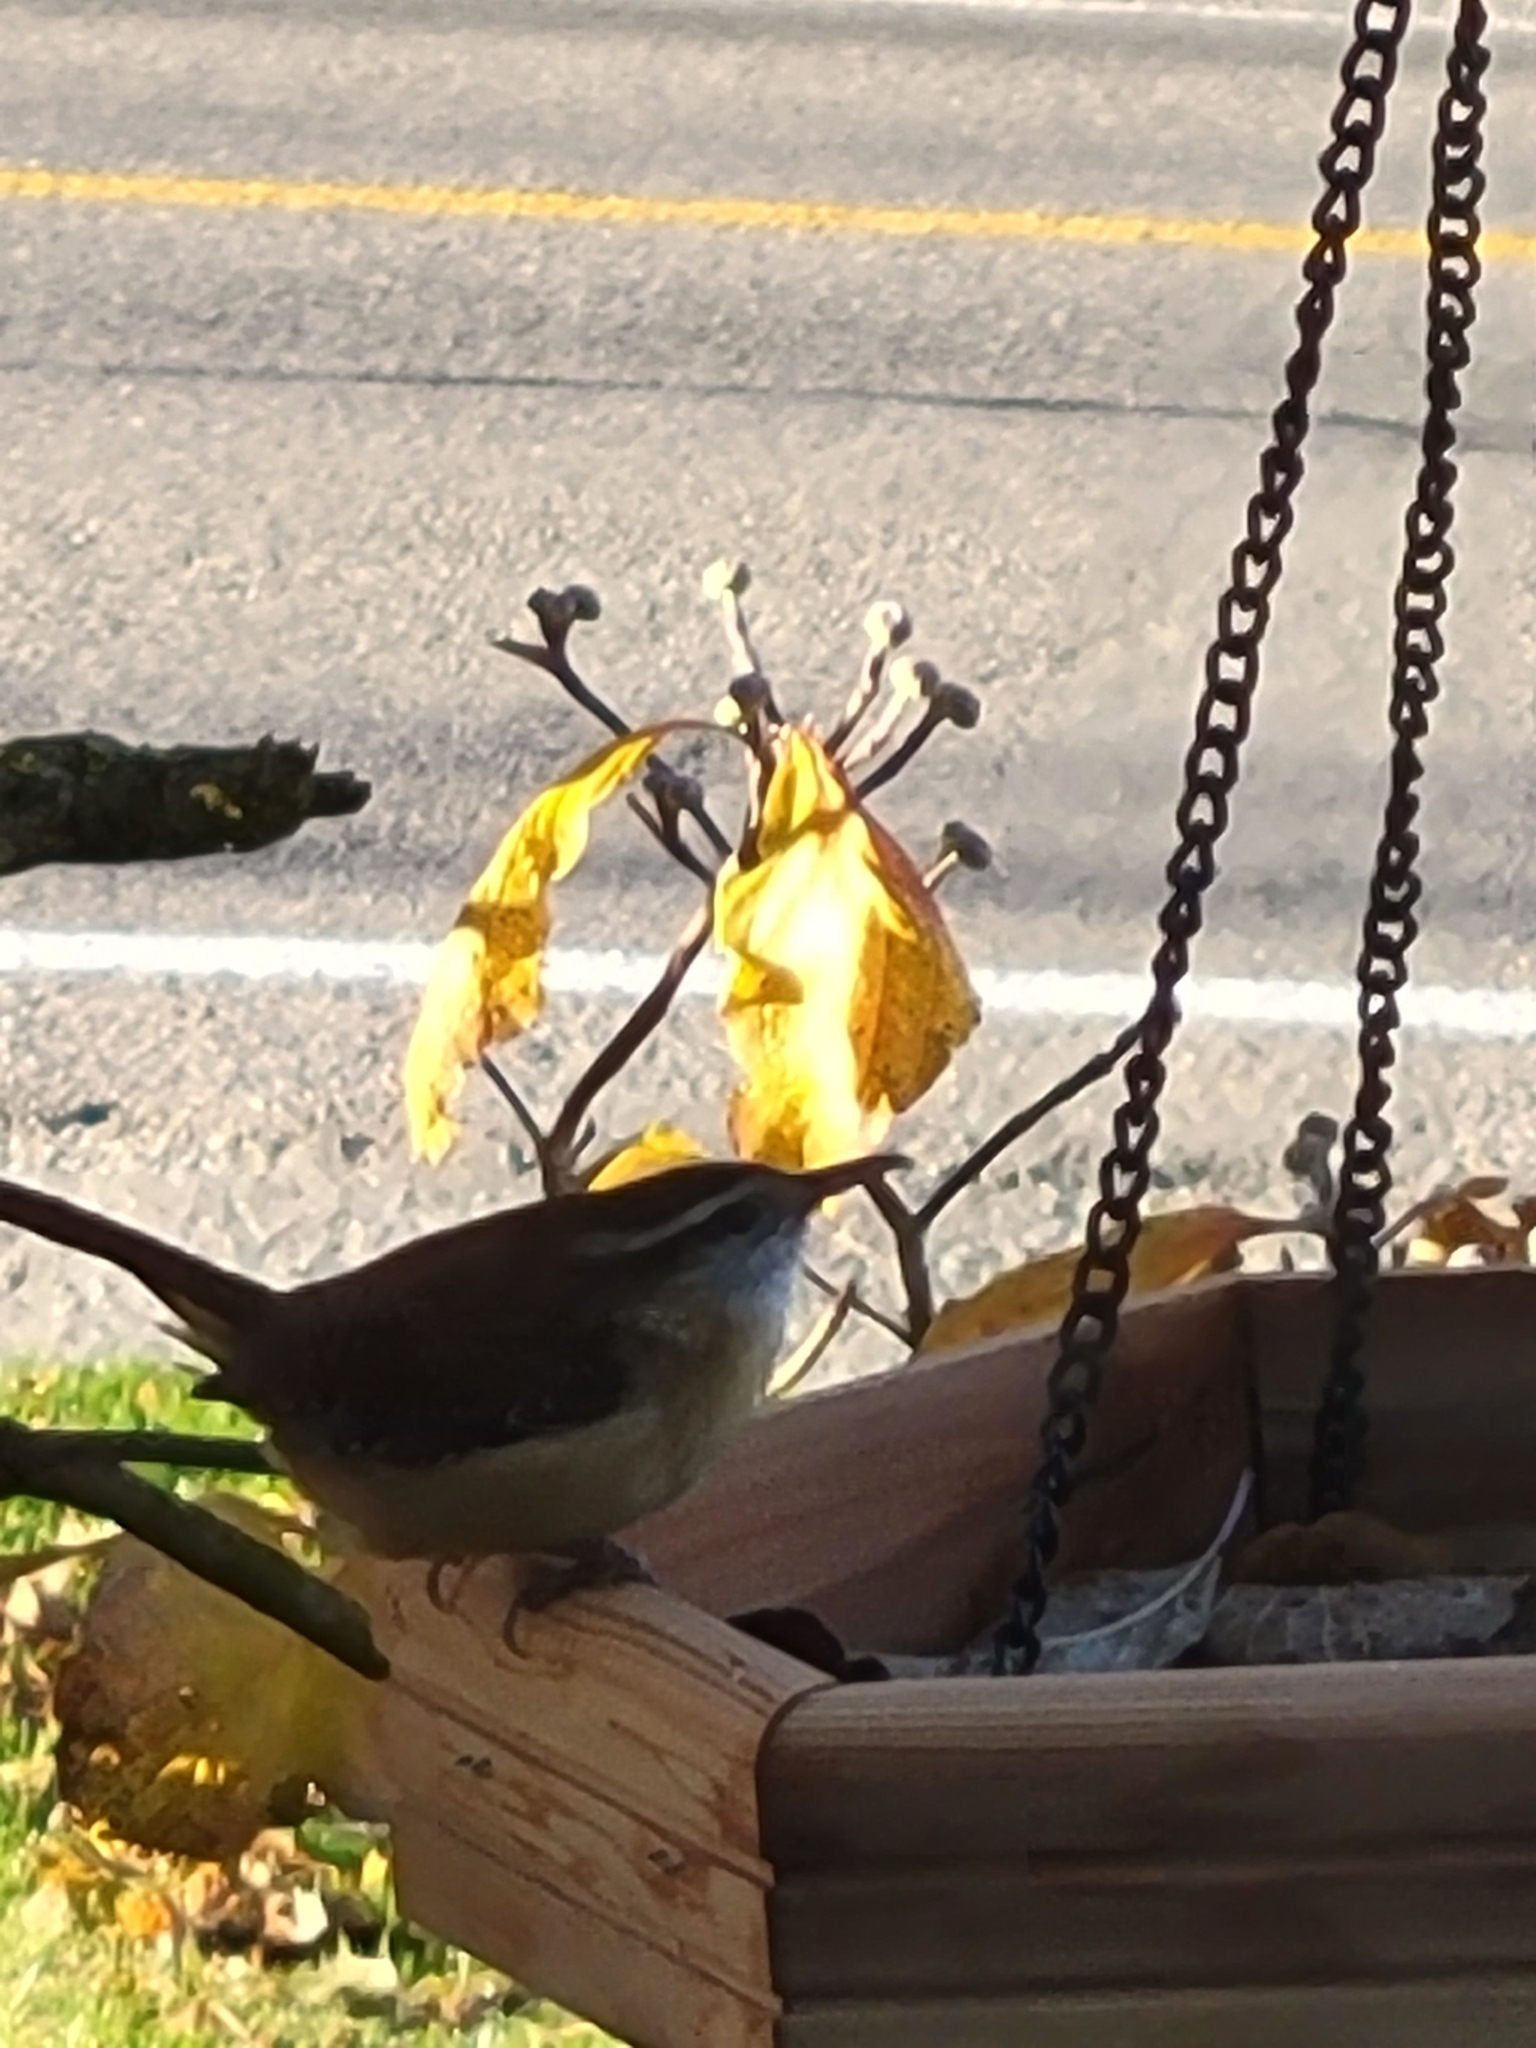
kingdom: Animalia
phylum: Chordata
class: Aves
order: Passeriformes
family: Troglodytidae
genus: Thryothorus
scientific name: Thryothorus ludovicianus
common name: Carolina wren
